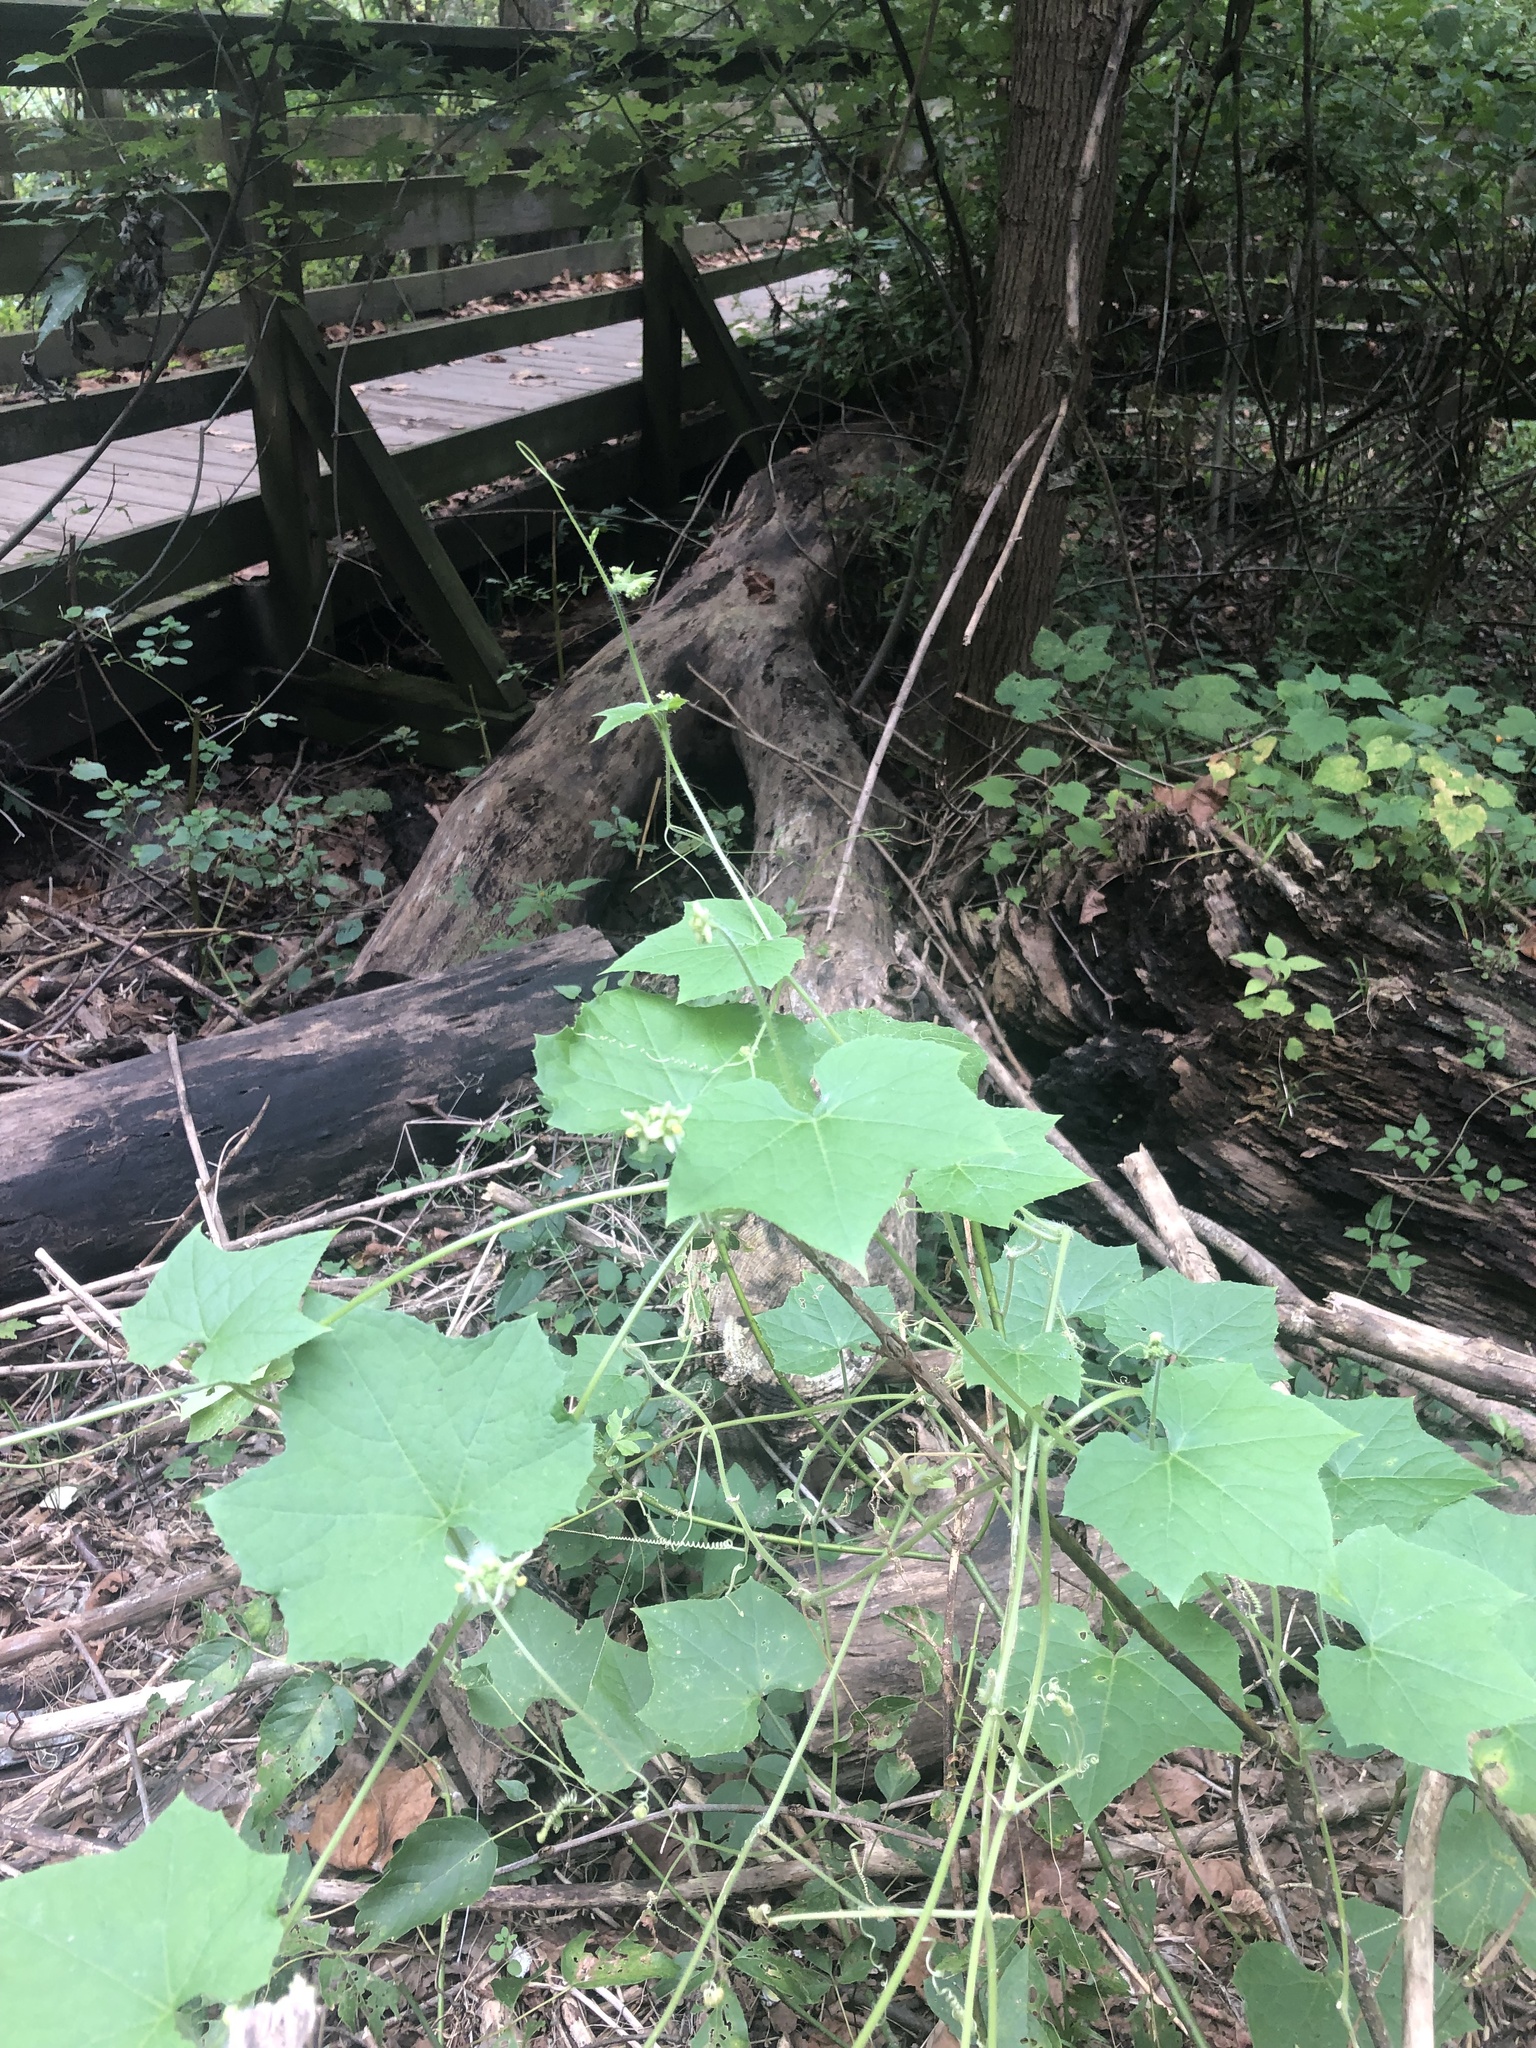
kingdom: Plantae
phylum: Tracheophyta
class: Magnoliopsida
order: Cucurbitales
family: Cucurbitaceae
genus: Sicyos
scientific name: Sicyos angulatus
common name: Angled burr cucumber
